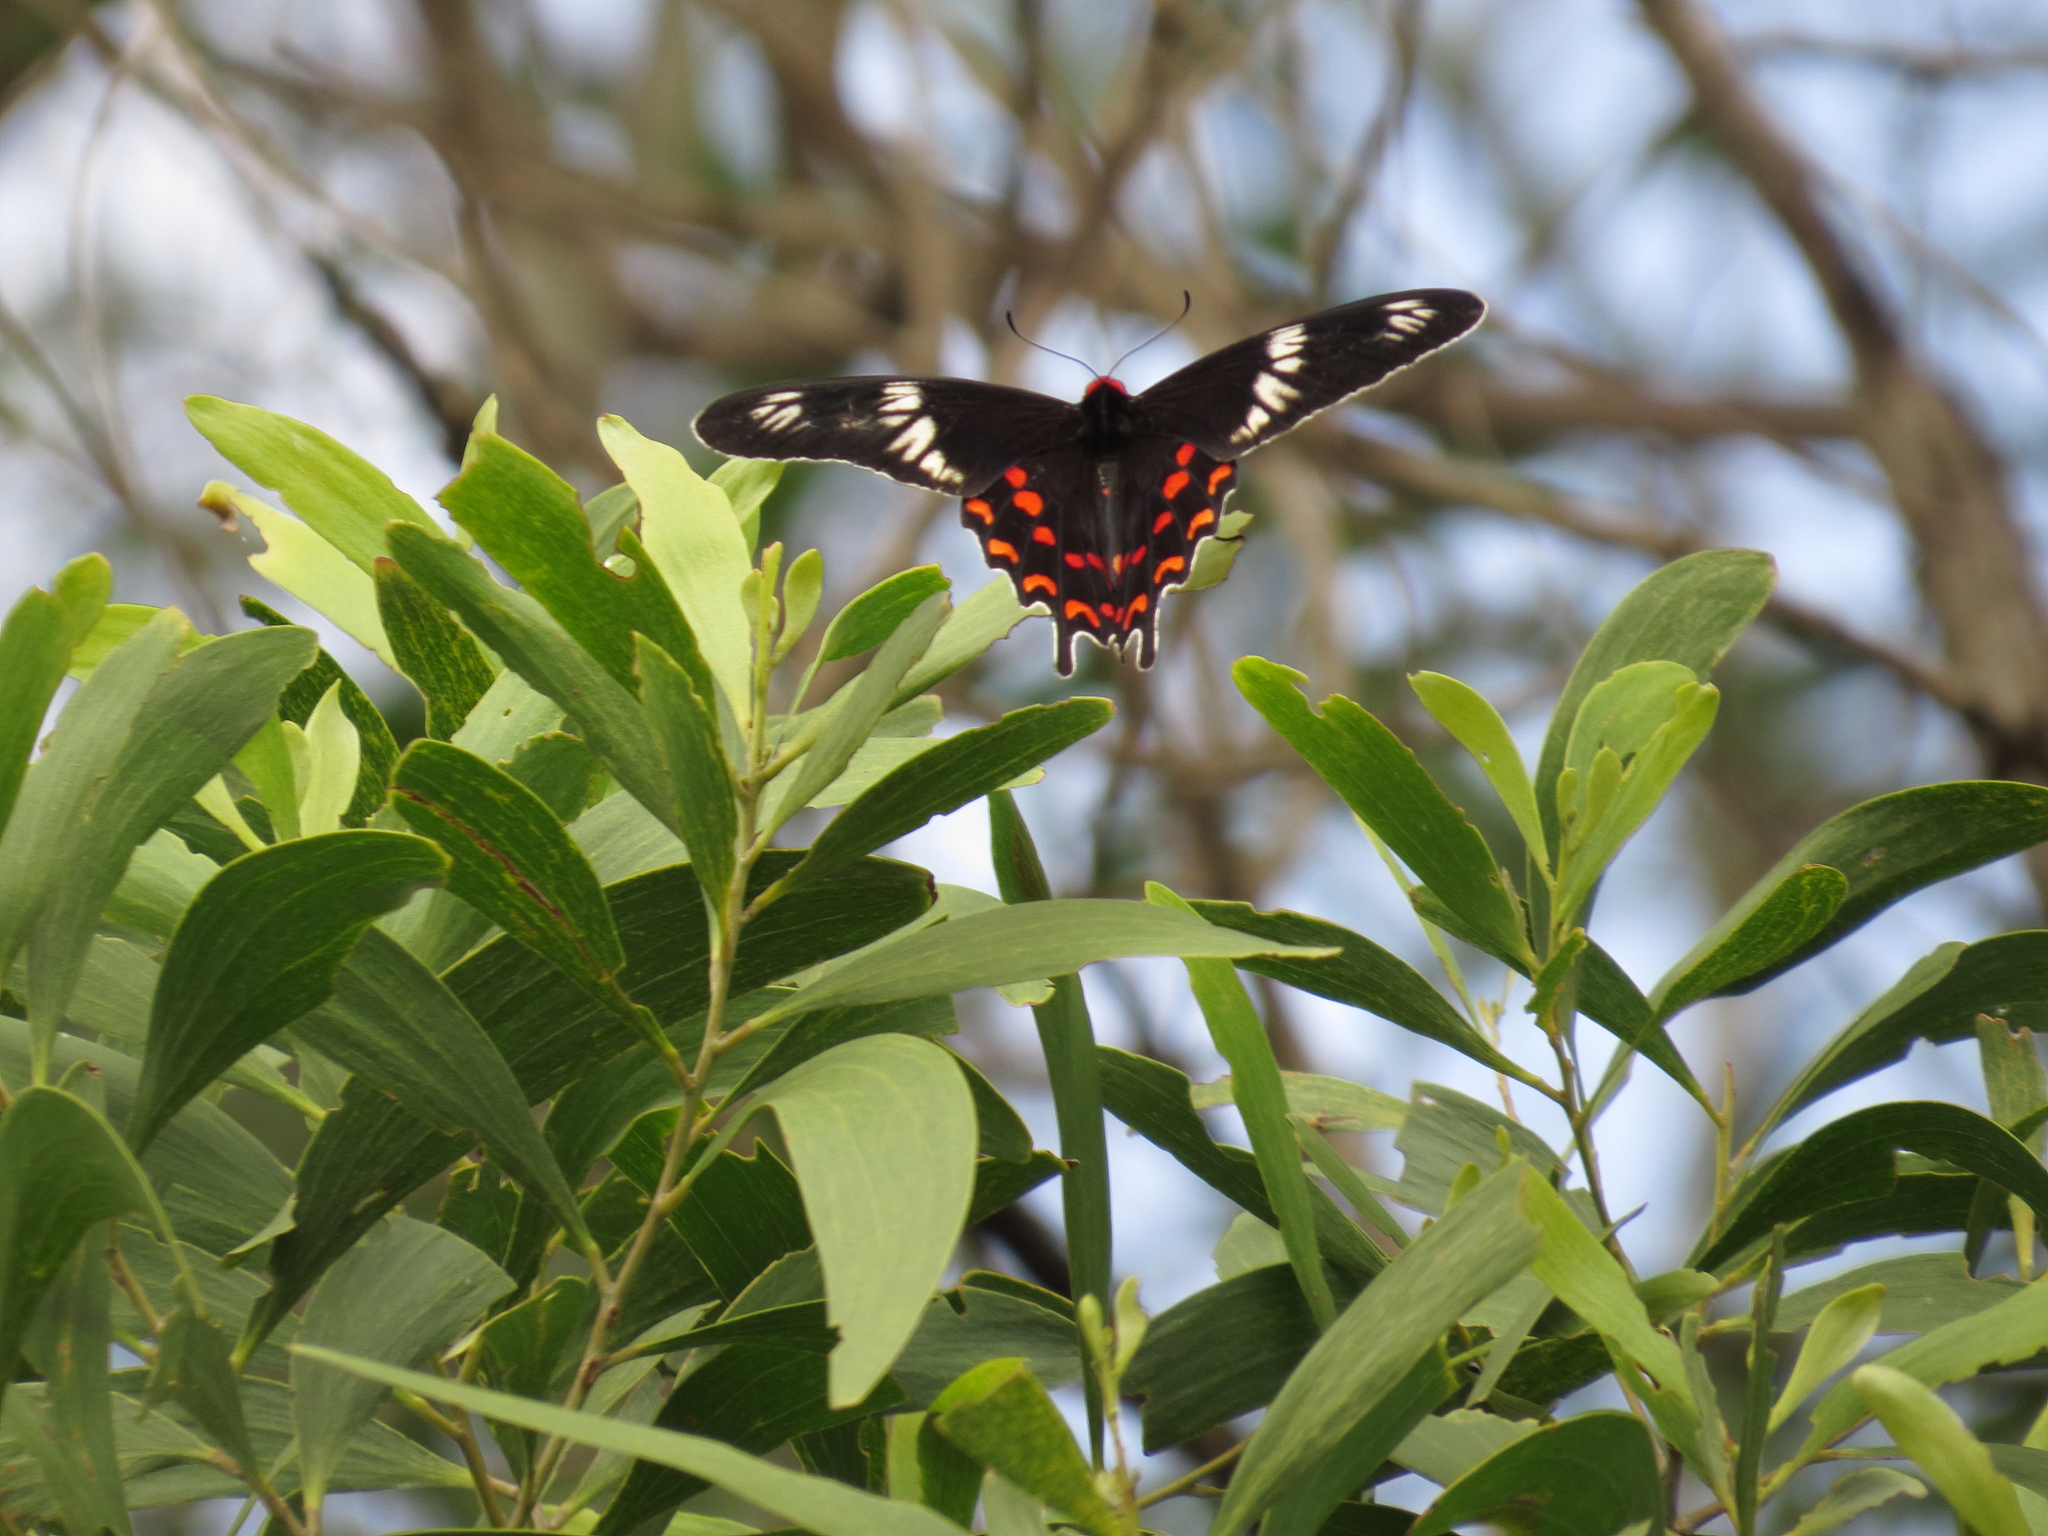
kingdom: Animalia
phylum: Arthropoda
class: Insecta
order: Lepidoptera
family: Papilionidae
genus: Pachliopta
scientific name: Pachliopta hector
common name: Crimson rose
